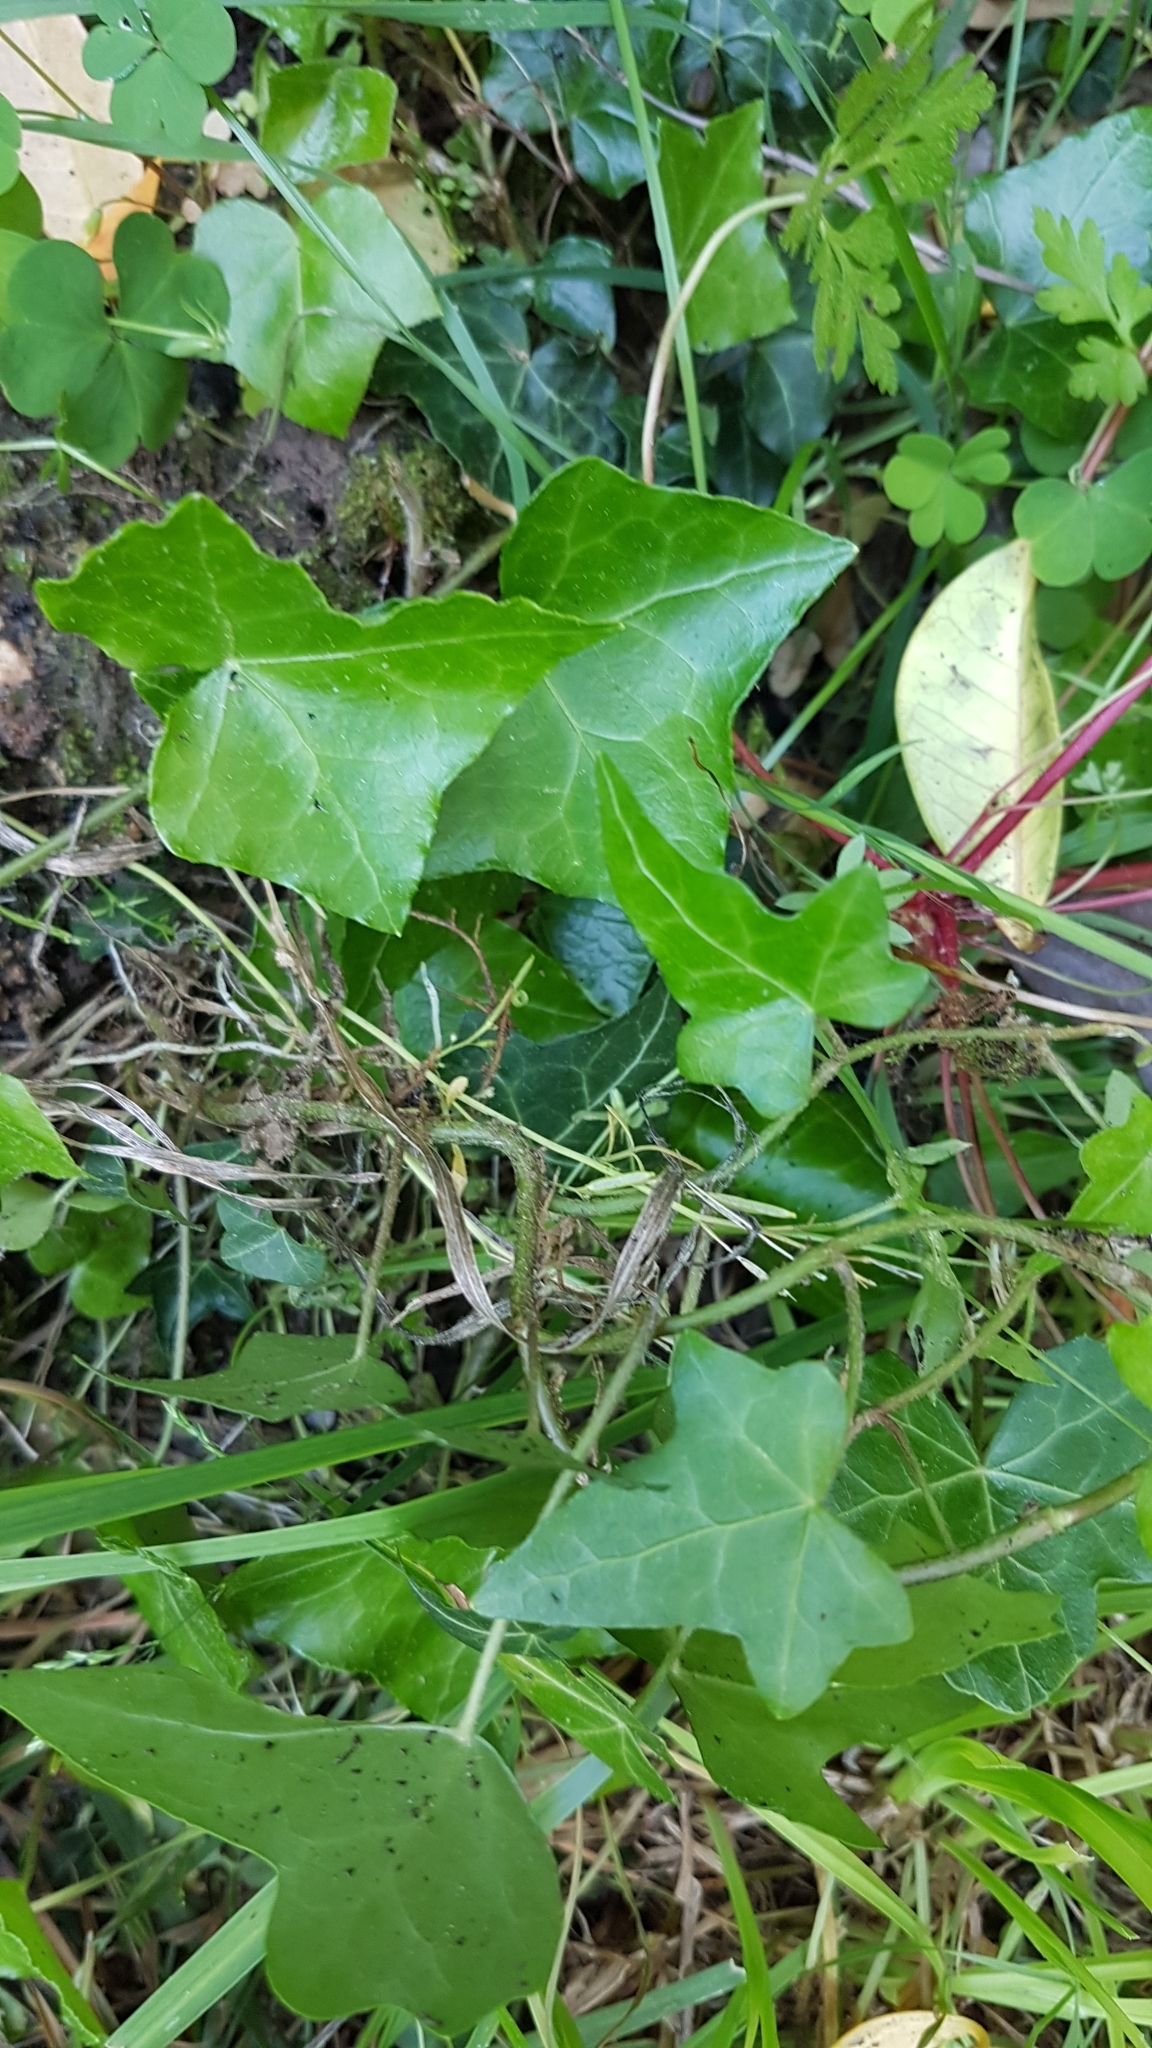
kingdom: Plantae
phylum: Tracheophyta
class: Magnoliopsida
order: Apiales
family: Araliaceae
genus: Hedera
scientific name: Hedera helix
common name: Ivy
